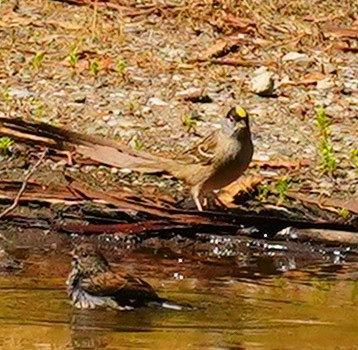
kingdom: Animalia
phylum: Chordata
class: Aves
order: Passeriformes
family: Passerellidae
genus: Zonotrichia
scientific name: Zonotrichia atricapilla
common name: Golden-crowned sparrow
